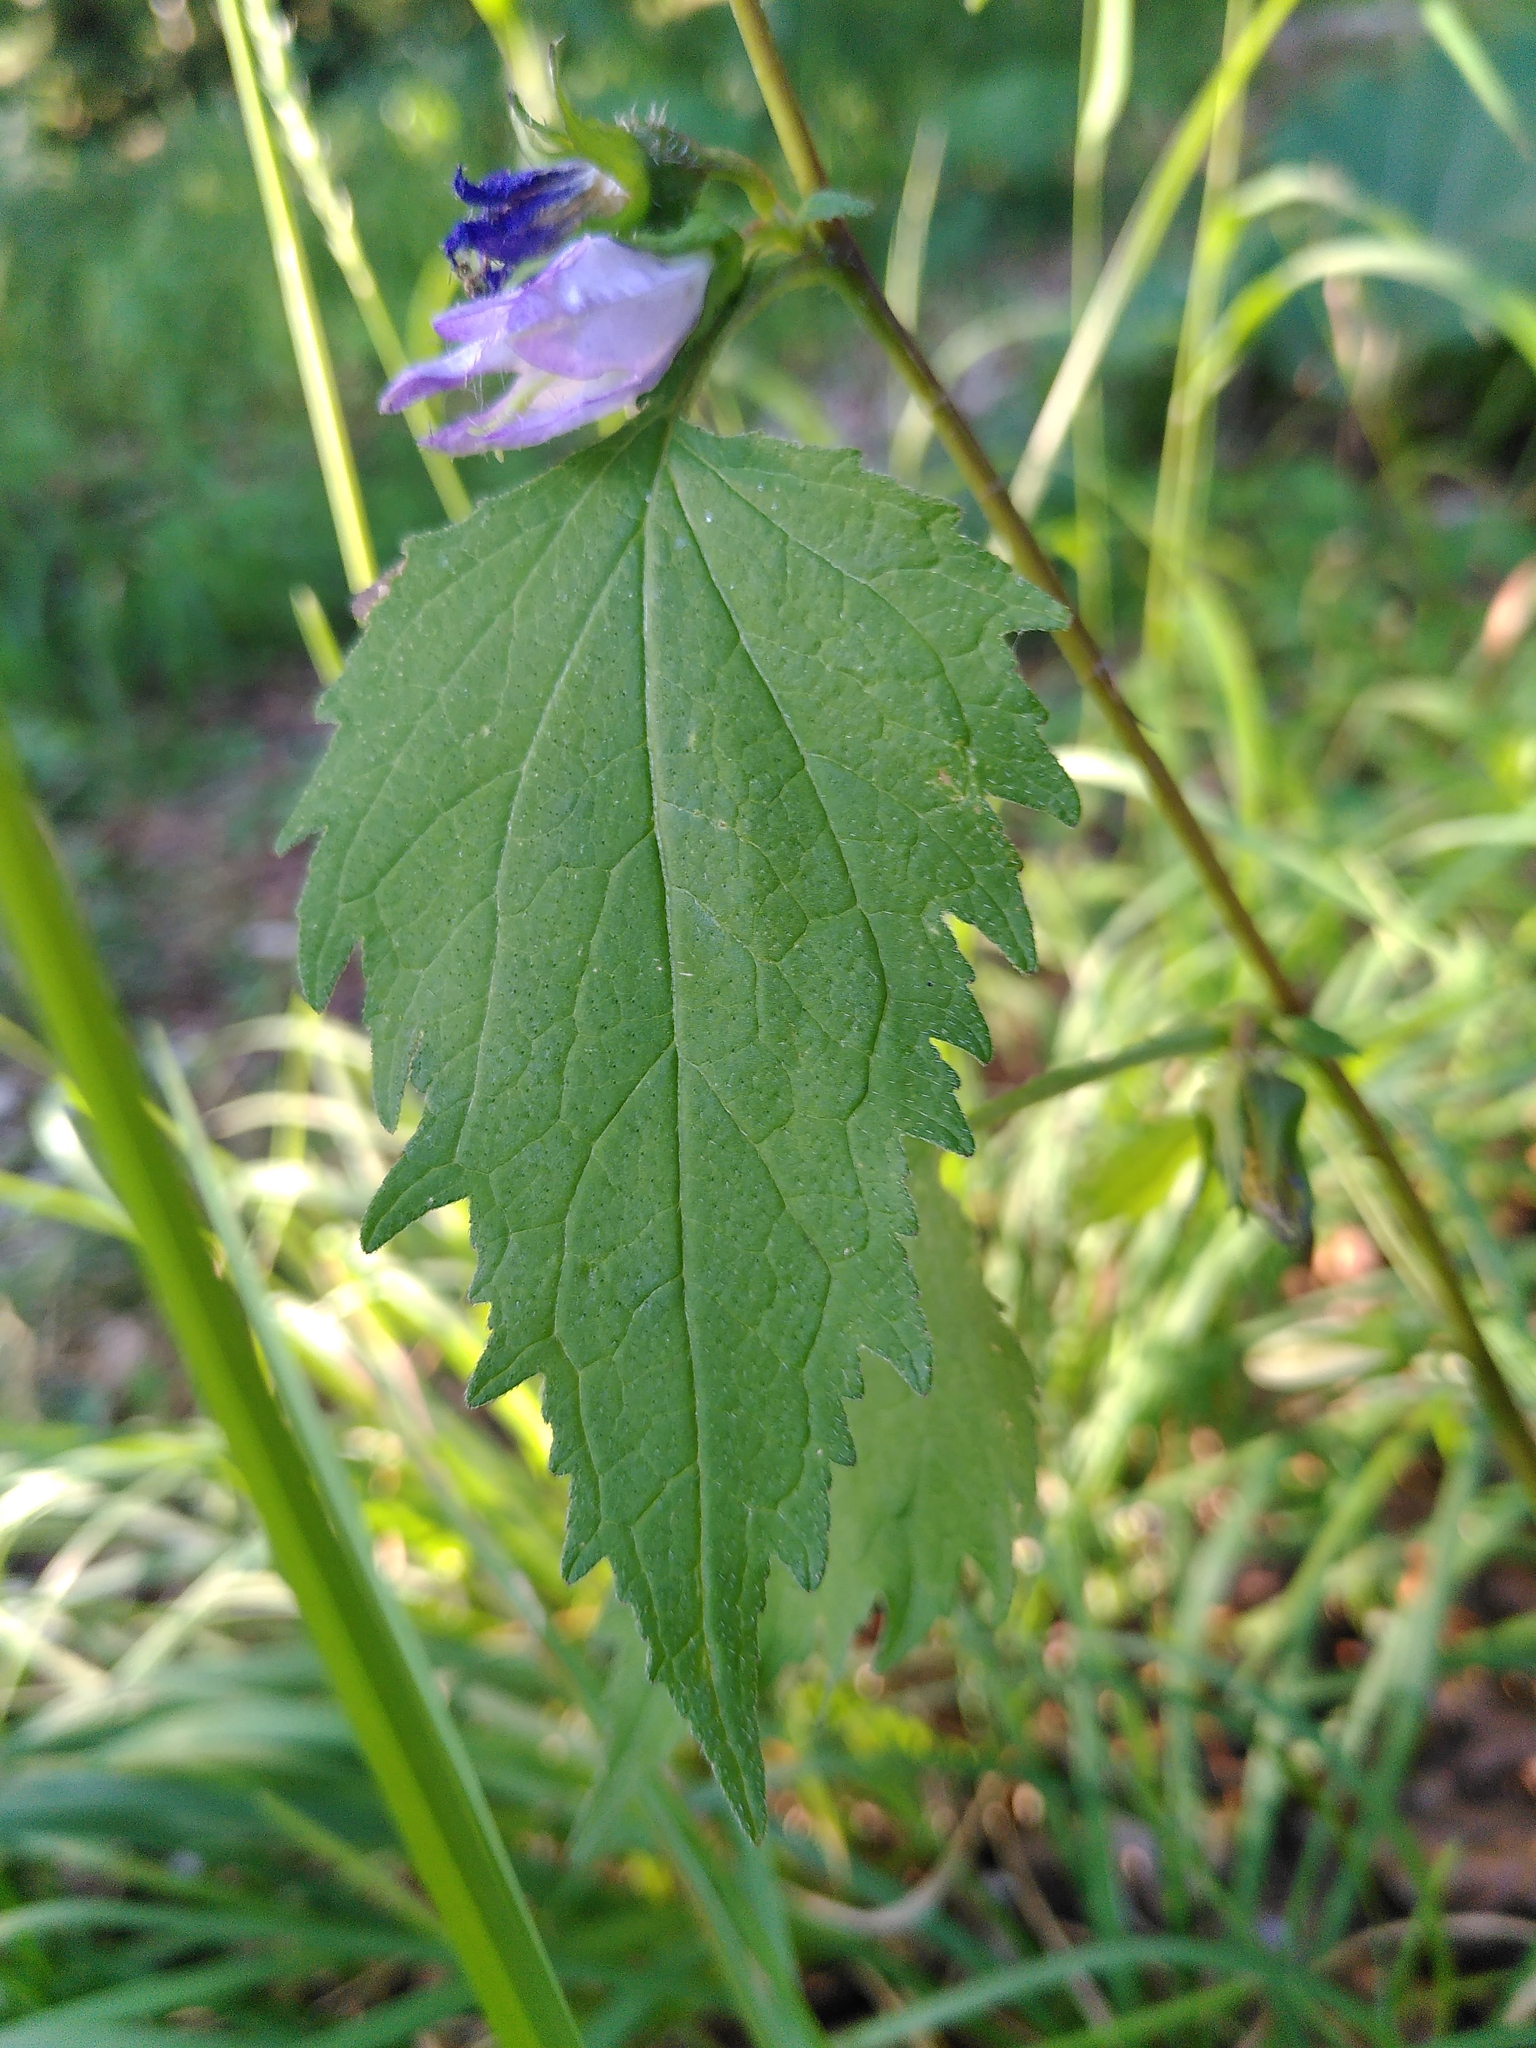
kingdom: Plantae
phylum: Tracheophyta
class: Magnoliopsida
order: Asterales
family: Campanulaceae
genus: Campanula
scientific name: Campanula trachelium
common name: Nettle-leaved bellflower
